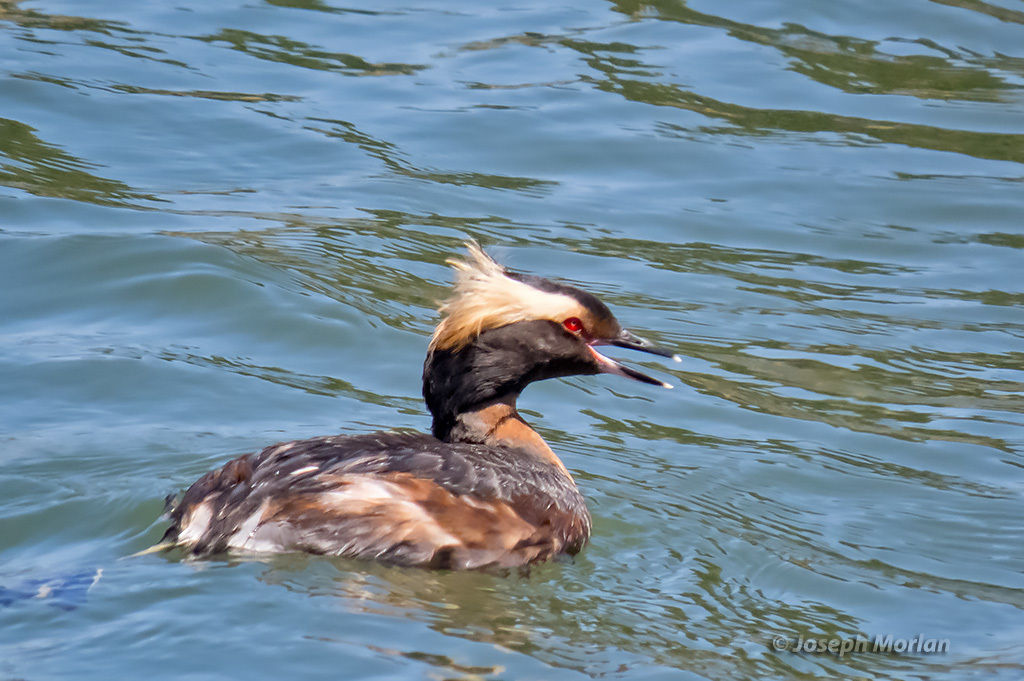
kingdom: Animalia
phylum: Chordata
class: Aves
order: Podicipediformes
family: Podicipedidae
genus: Podiceps
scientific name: Podiceps auritus
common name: Horned grebe
